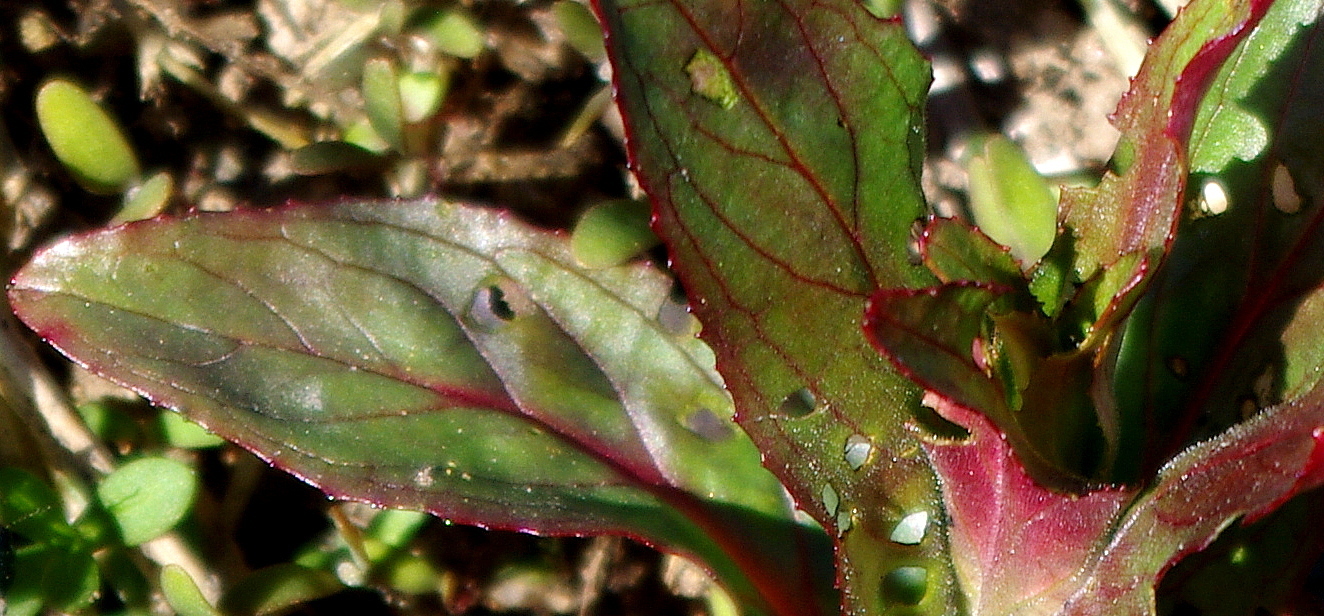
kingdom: Plantae
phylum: Tracheophyta
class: Magnoliopsida
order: Myrtales
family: Onagraceae
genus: Epilobium
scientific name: Epilobium hirsutum
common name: Great willowherb
